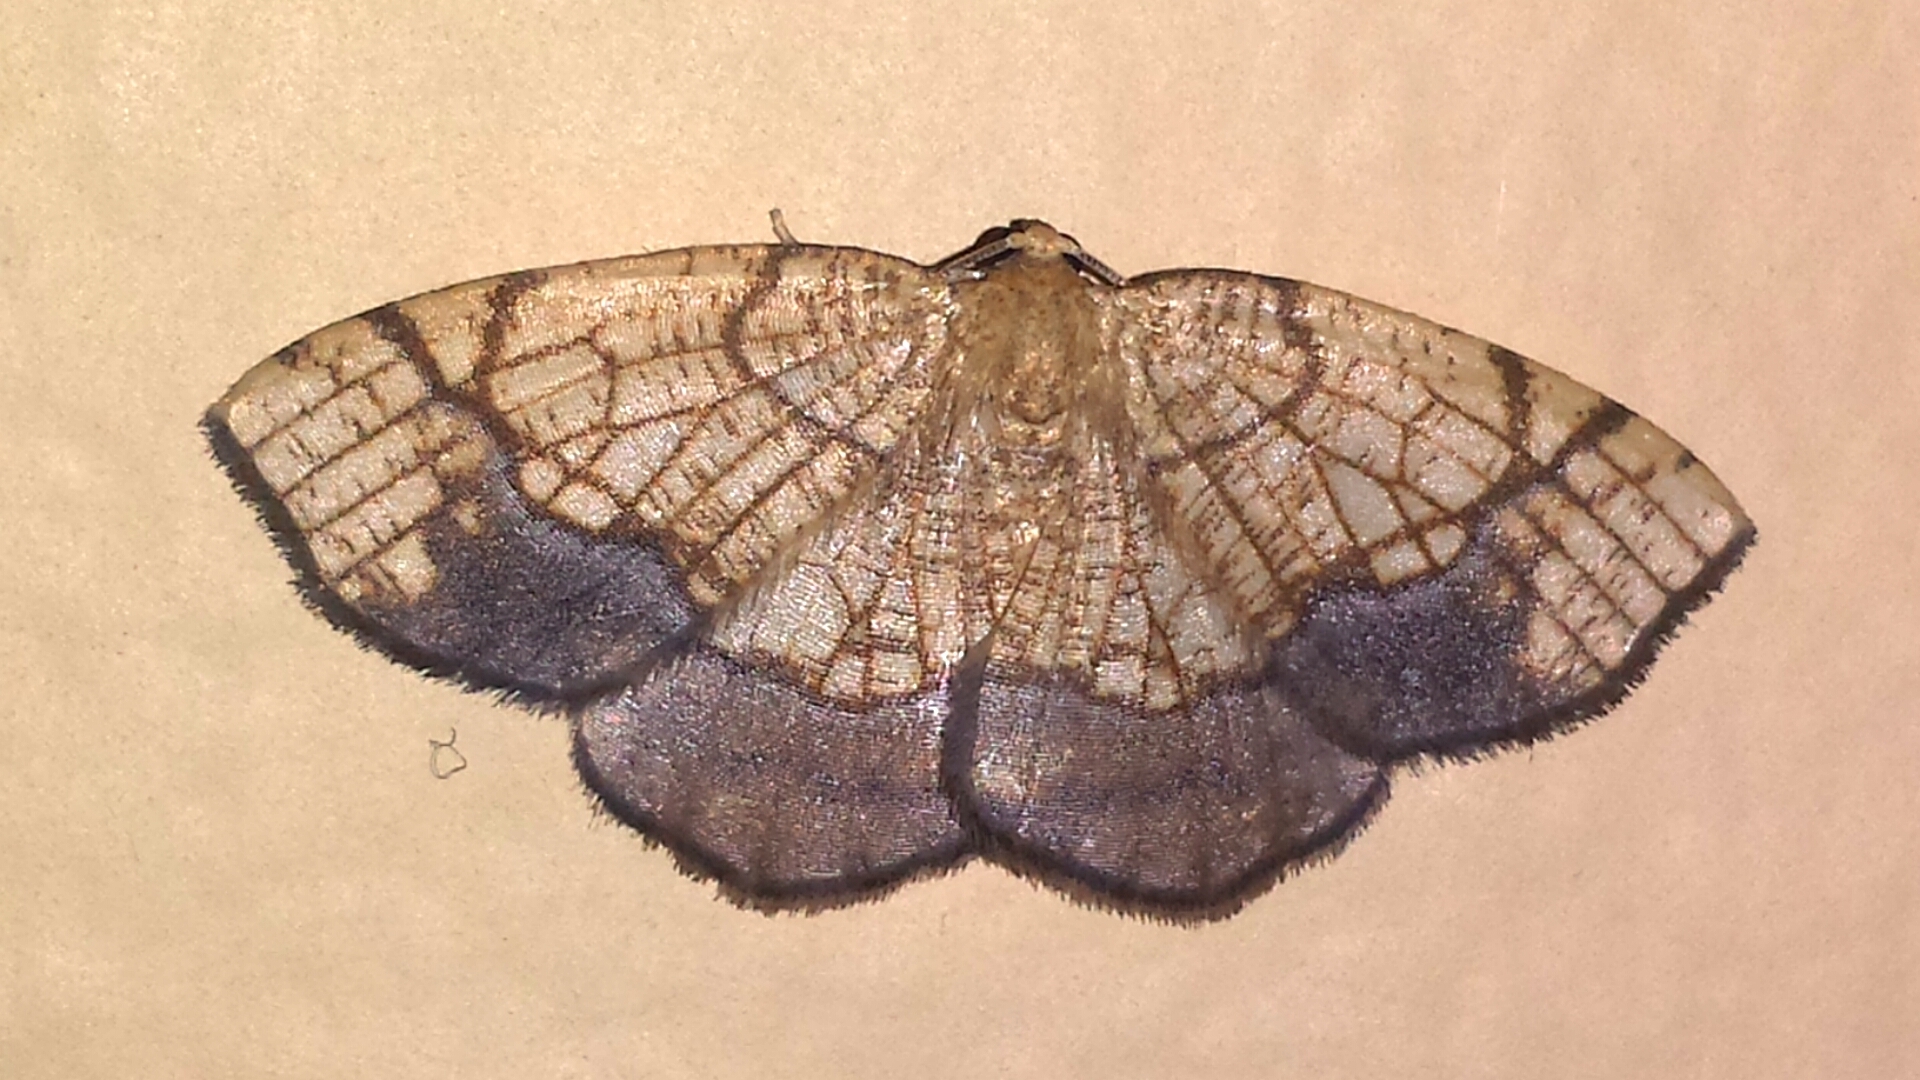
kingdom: Animalia
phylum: Arthropoda
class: Insecta
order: Lepidoptera
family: Geometridae
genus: Nematocampa
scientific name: Nematocampa resistaria
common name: Horned spanworm moth
